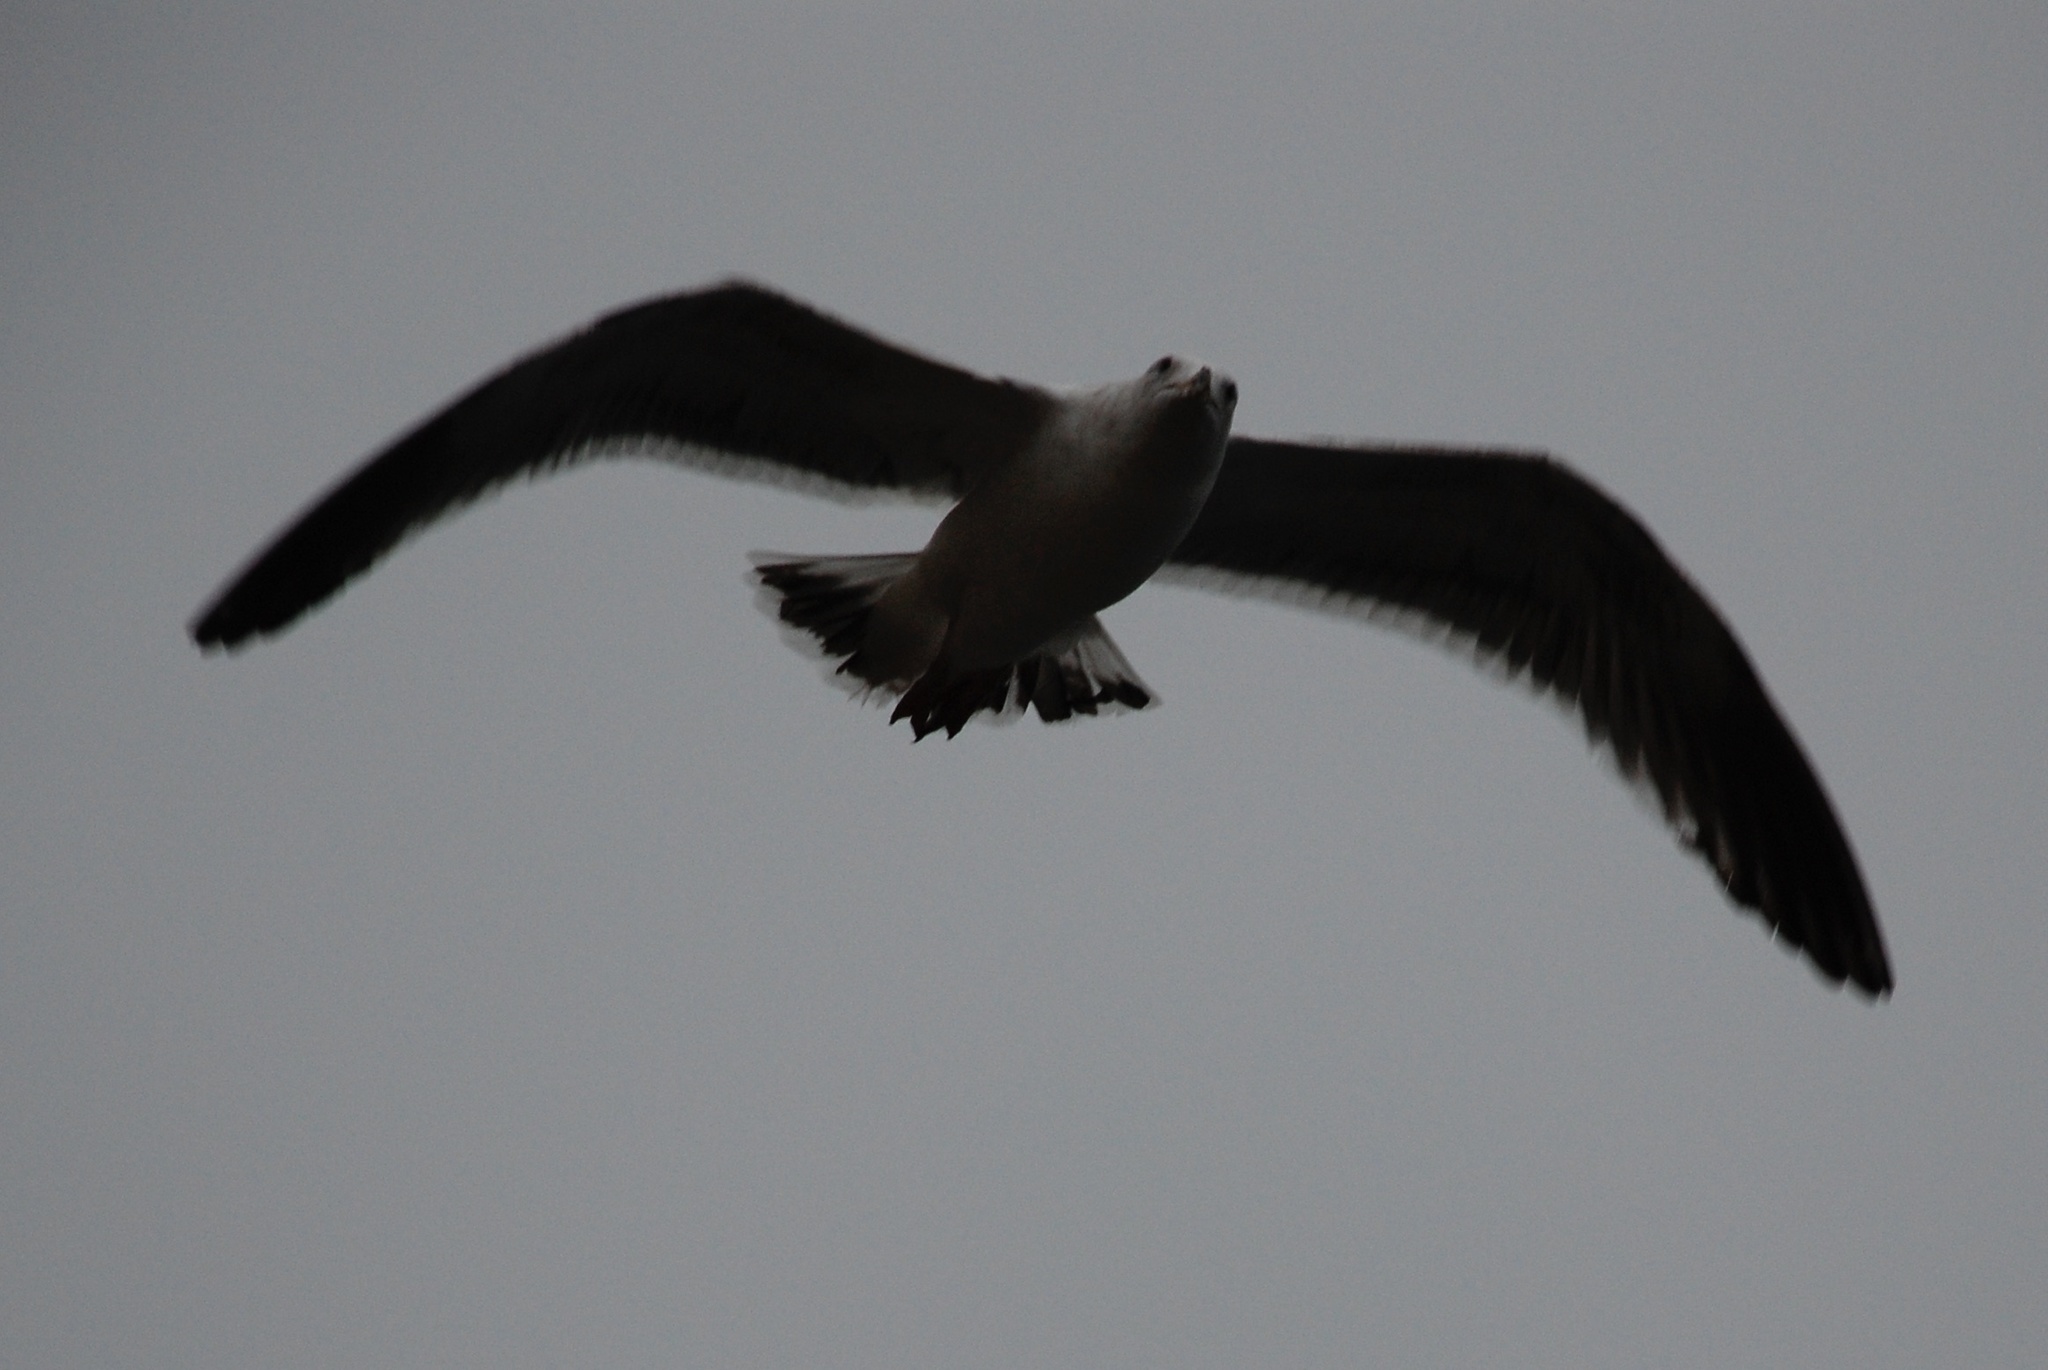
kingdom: Animalia
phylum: Chordata
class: Aves
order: Charadriiformes
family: Laridae
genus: Larus
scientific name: Larus
